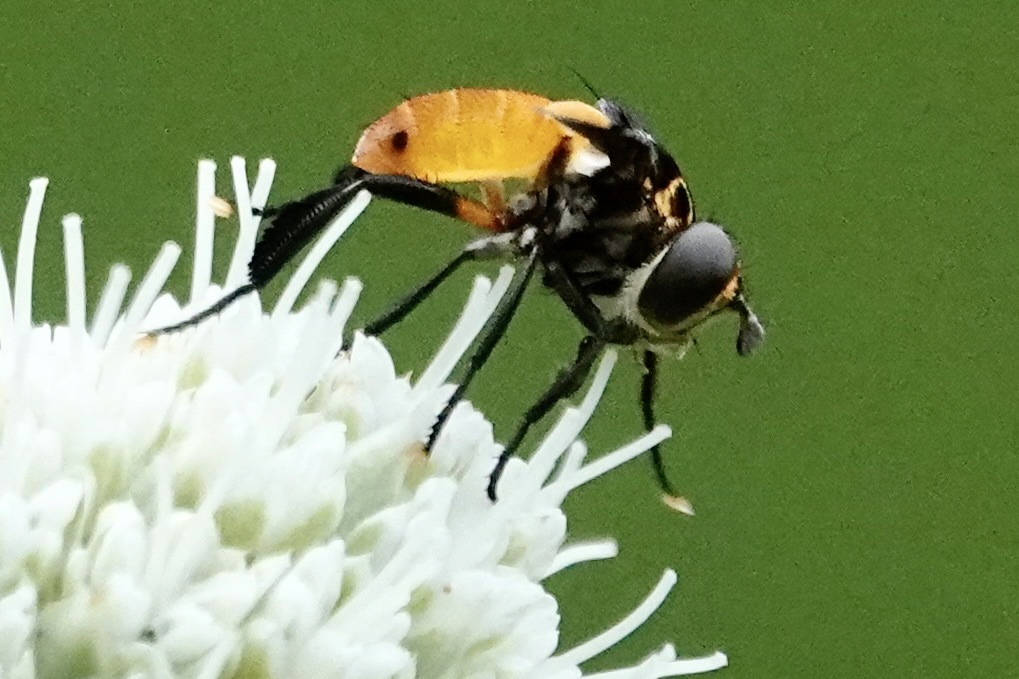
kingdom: Animalia
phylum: Arthropoda
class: Insecta
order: Diptera
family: Tachinidae
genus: Trichopoda
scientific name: Trichopoda pennipes
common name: Tachinid fly
